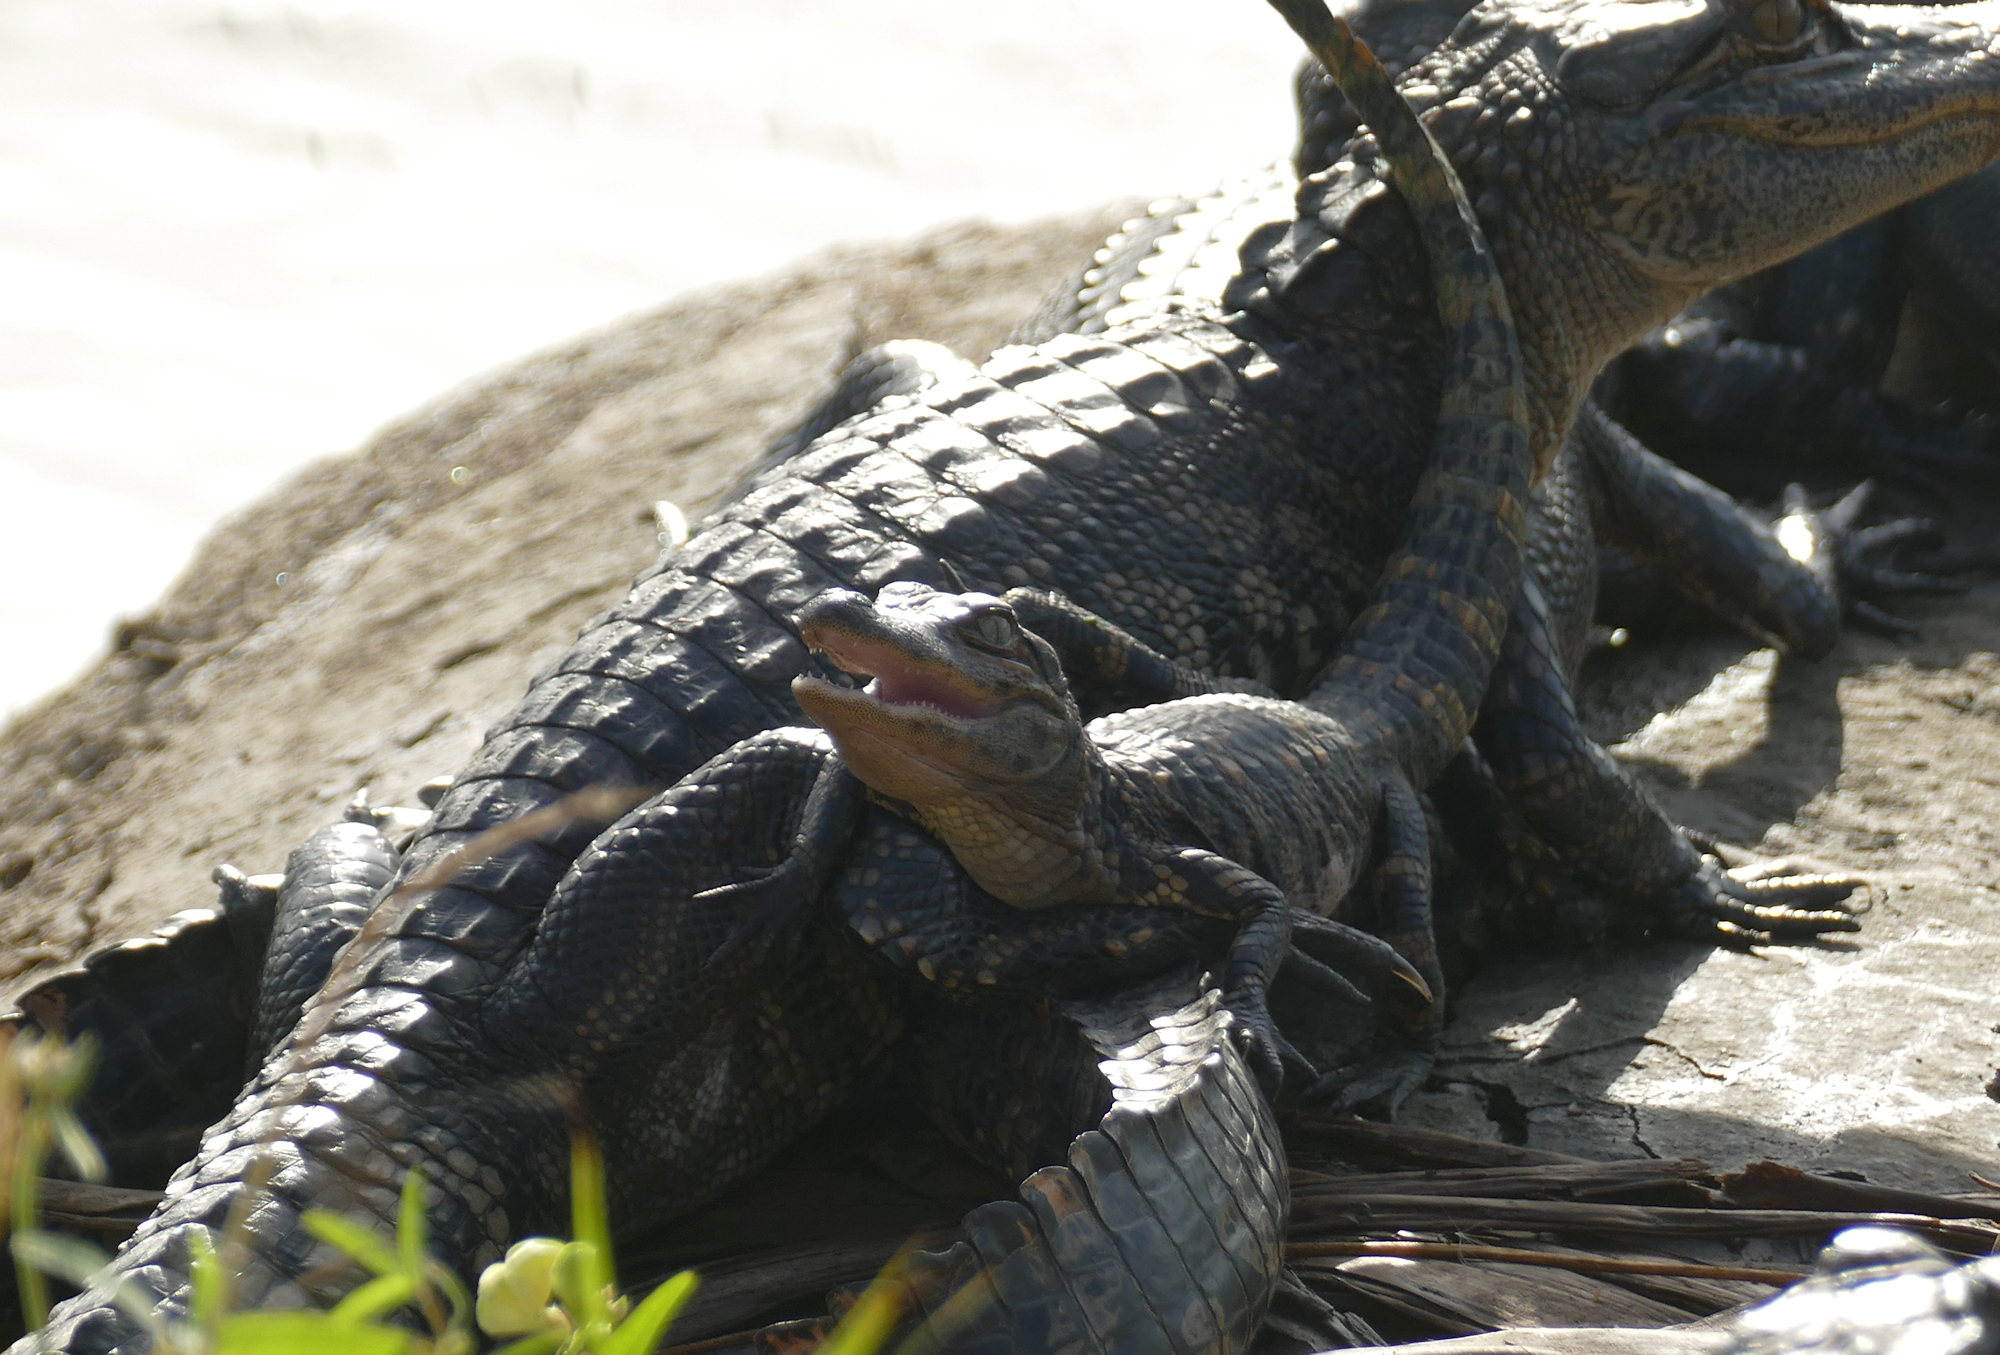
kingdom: Animalia
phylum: Chordata
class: Crocodylia
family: Alligatoridae
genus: Alligator
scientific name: Alligator mississippiensis
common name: American alligator
